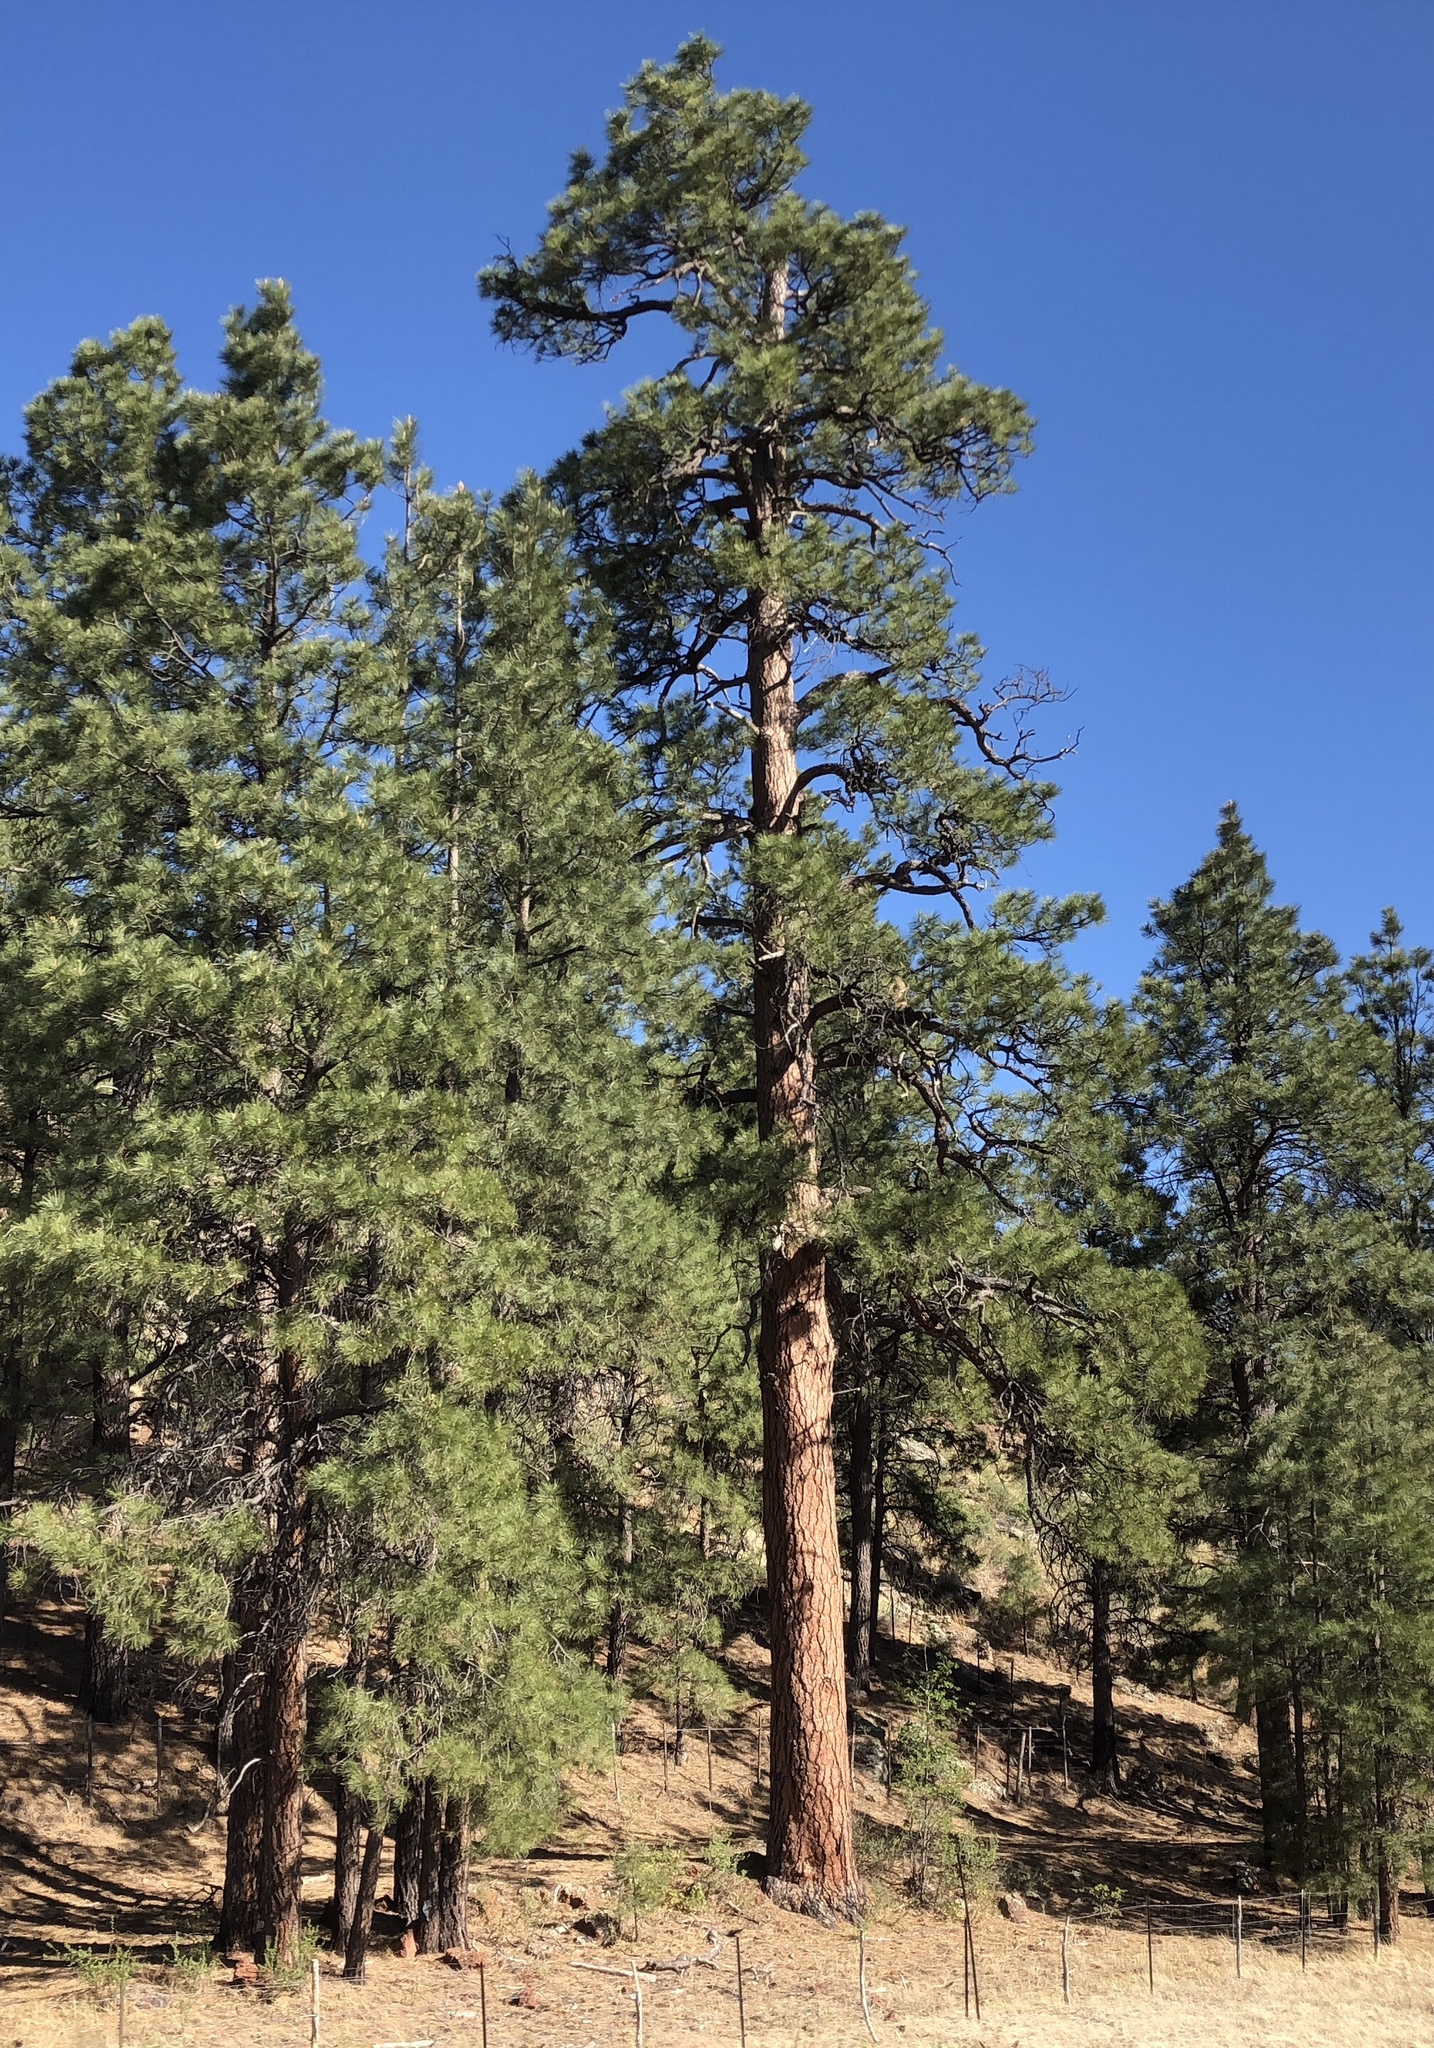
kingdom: Plantae
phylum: Tracheophyta
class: Pinopsida
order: Pinales
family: Pinaceae
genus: Pinus
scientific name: Pinus ponderosa
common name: Western yellow-pine
